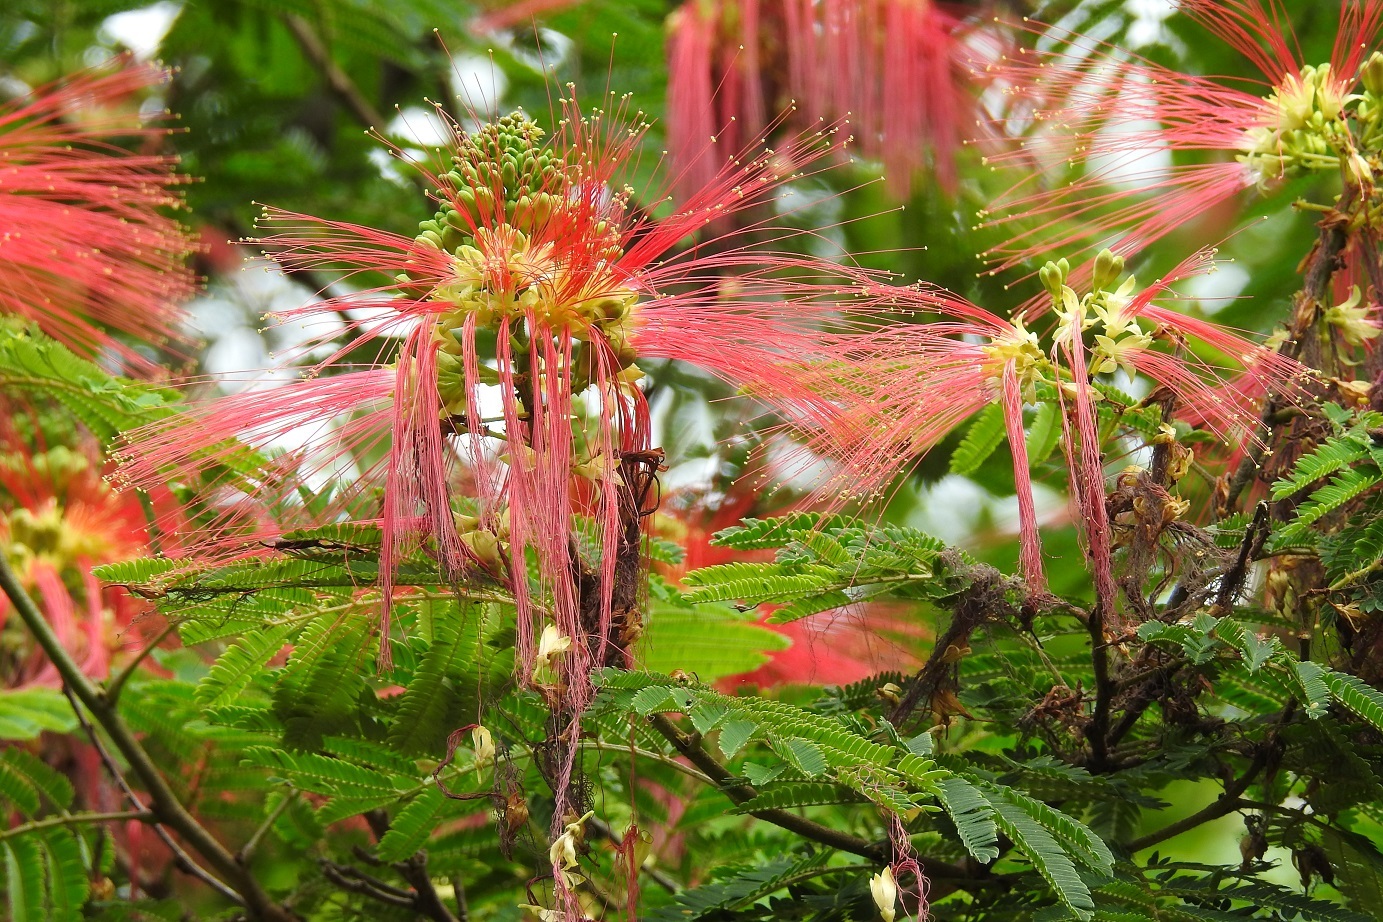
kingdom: Plantae
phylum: Tracheophyta
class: Magnoliopsida
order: Fabales
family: Fabaceae
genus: Calliandra
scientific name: Calliandra houstoniana
